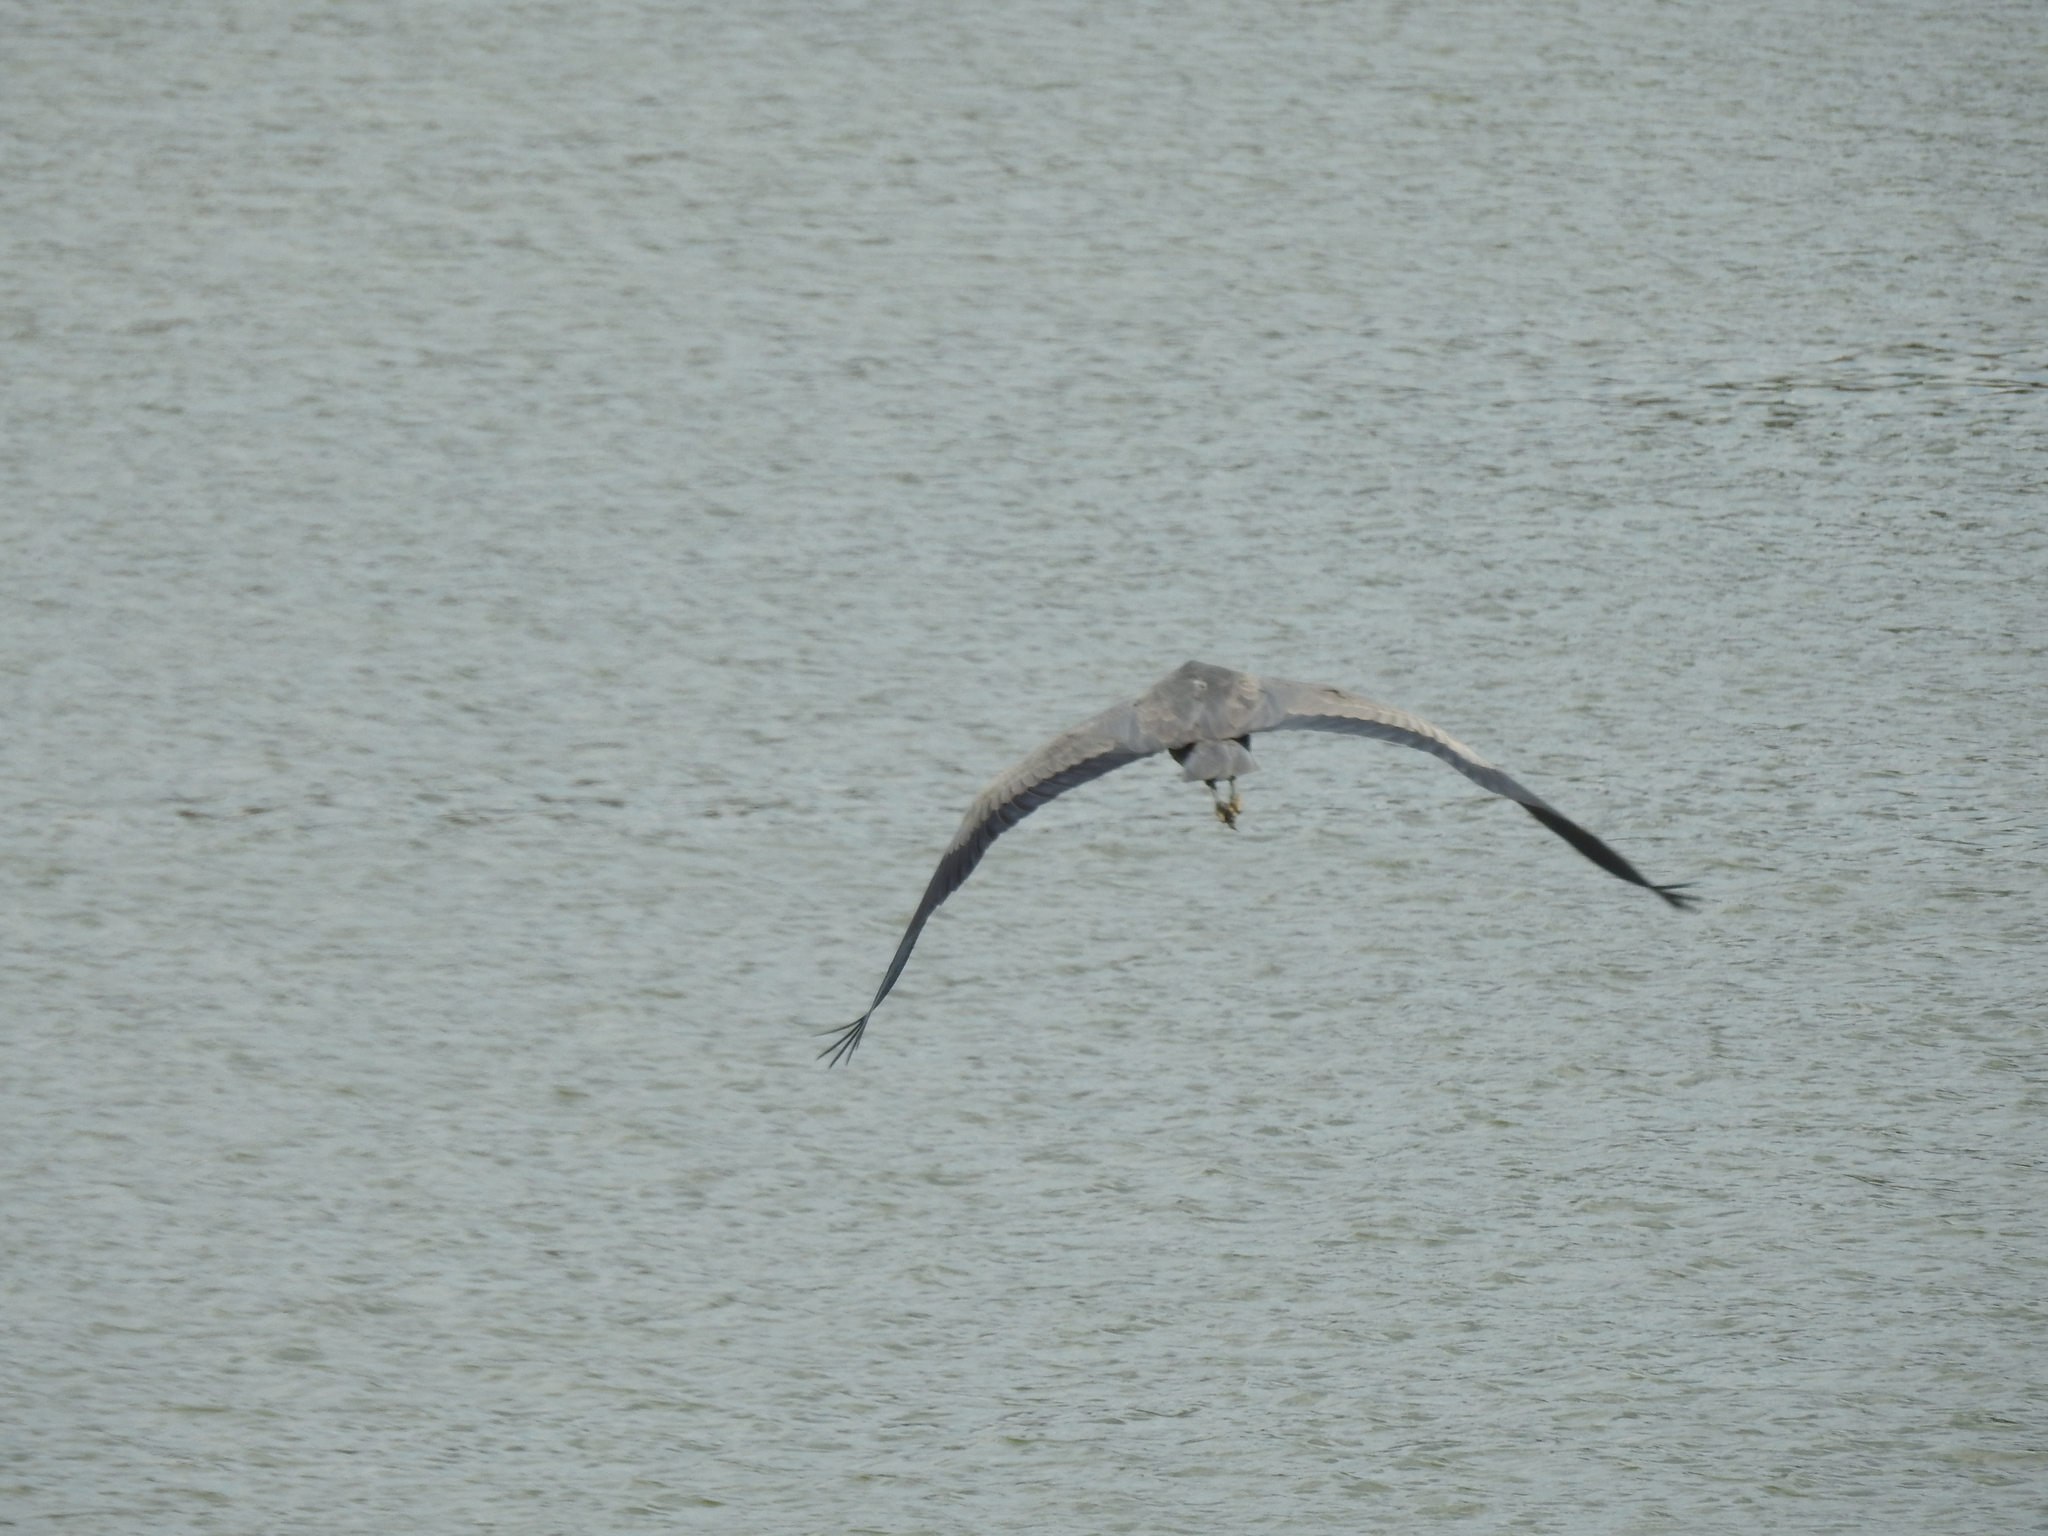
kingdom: Animalia
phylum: Chordata
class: Aves
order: Pelecaniformes
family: Ardeidae
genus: Ardea
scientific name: Ardea herodias
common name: Great blue heron
